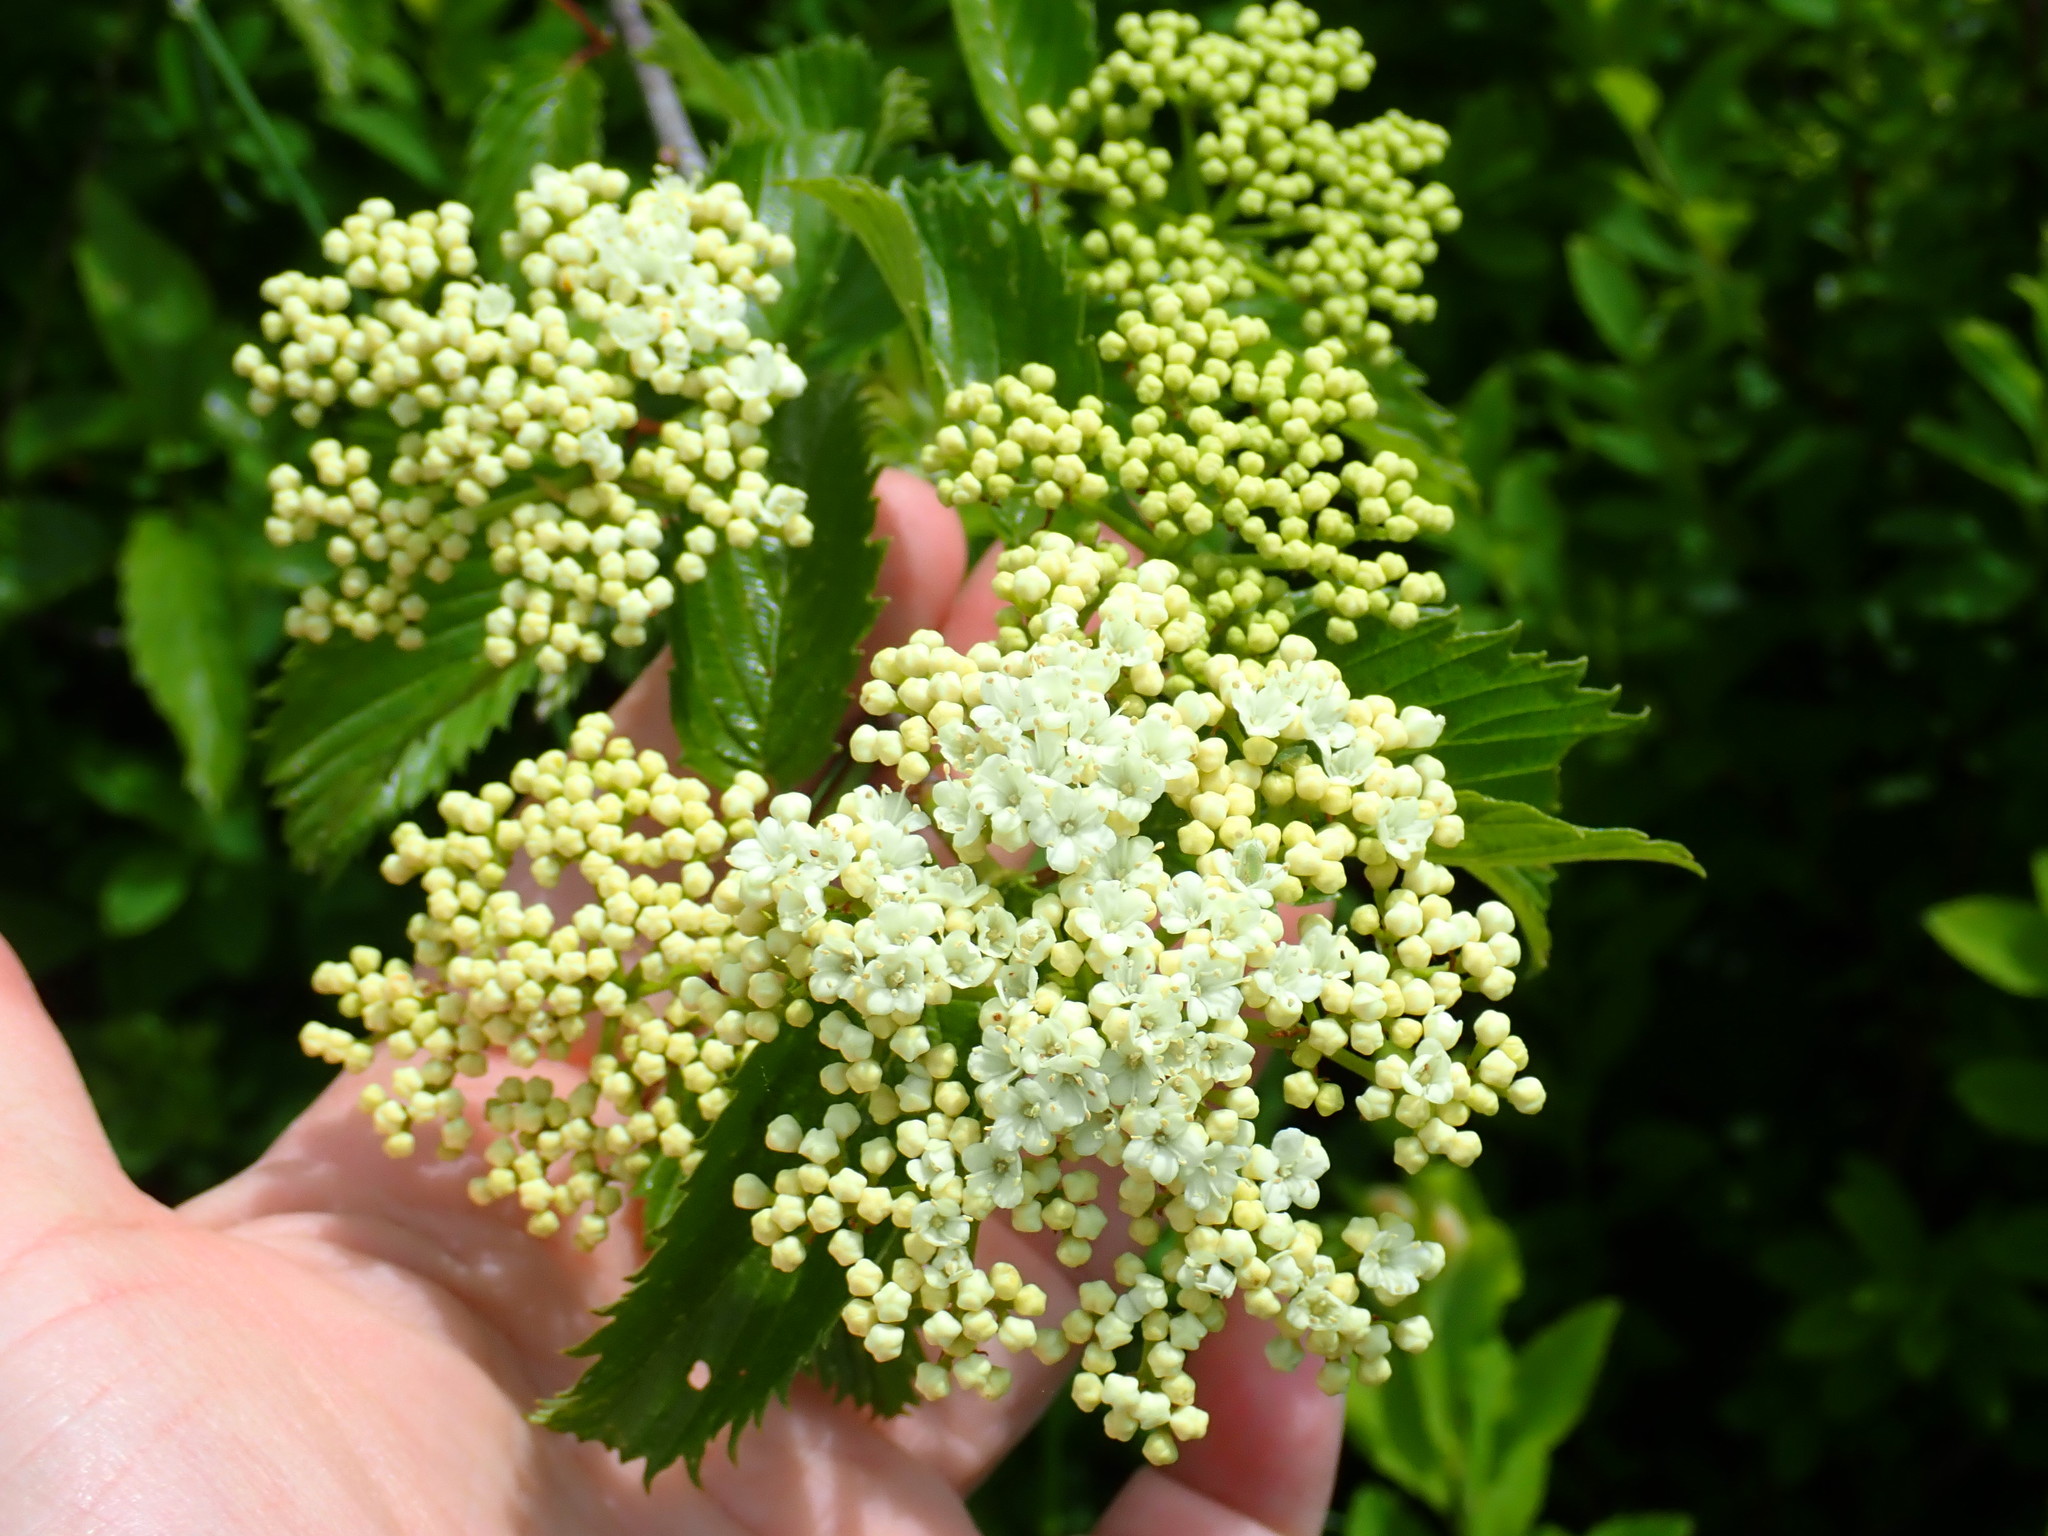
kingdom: Plantae
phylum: Tracheophyta
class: Magnoliopsida
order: Dipsacales
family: Viburnaceae
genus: Viburnum
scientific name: Viburnum
